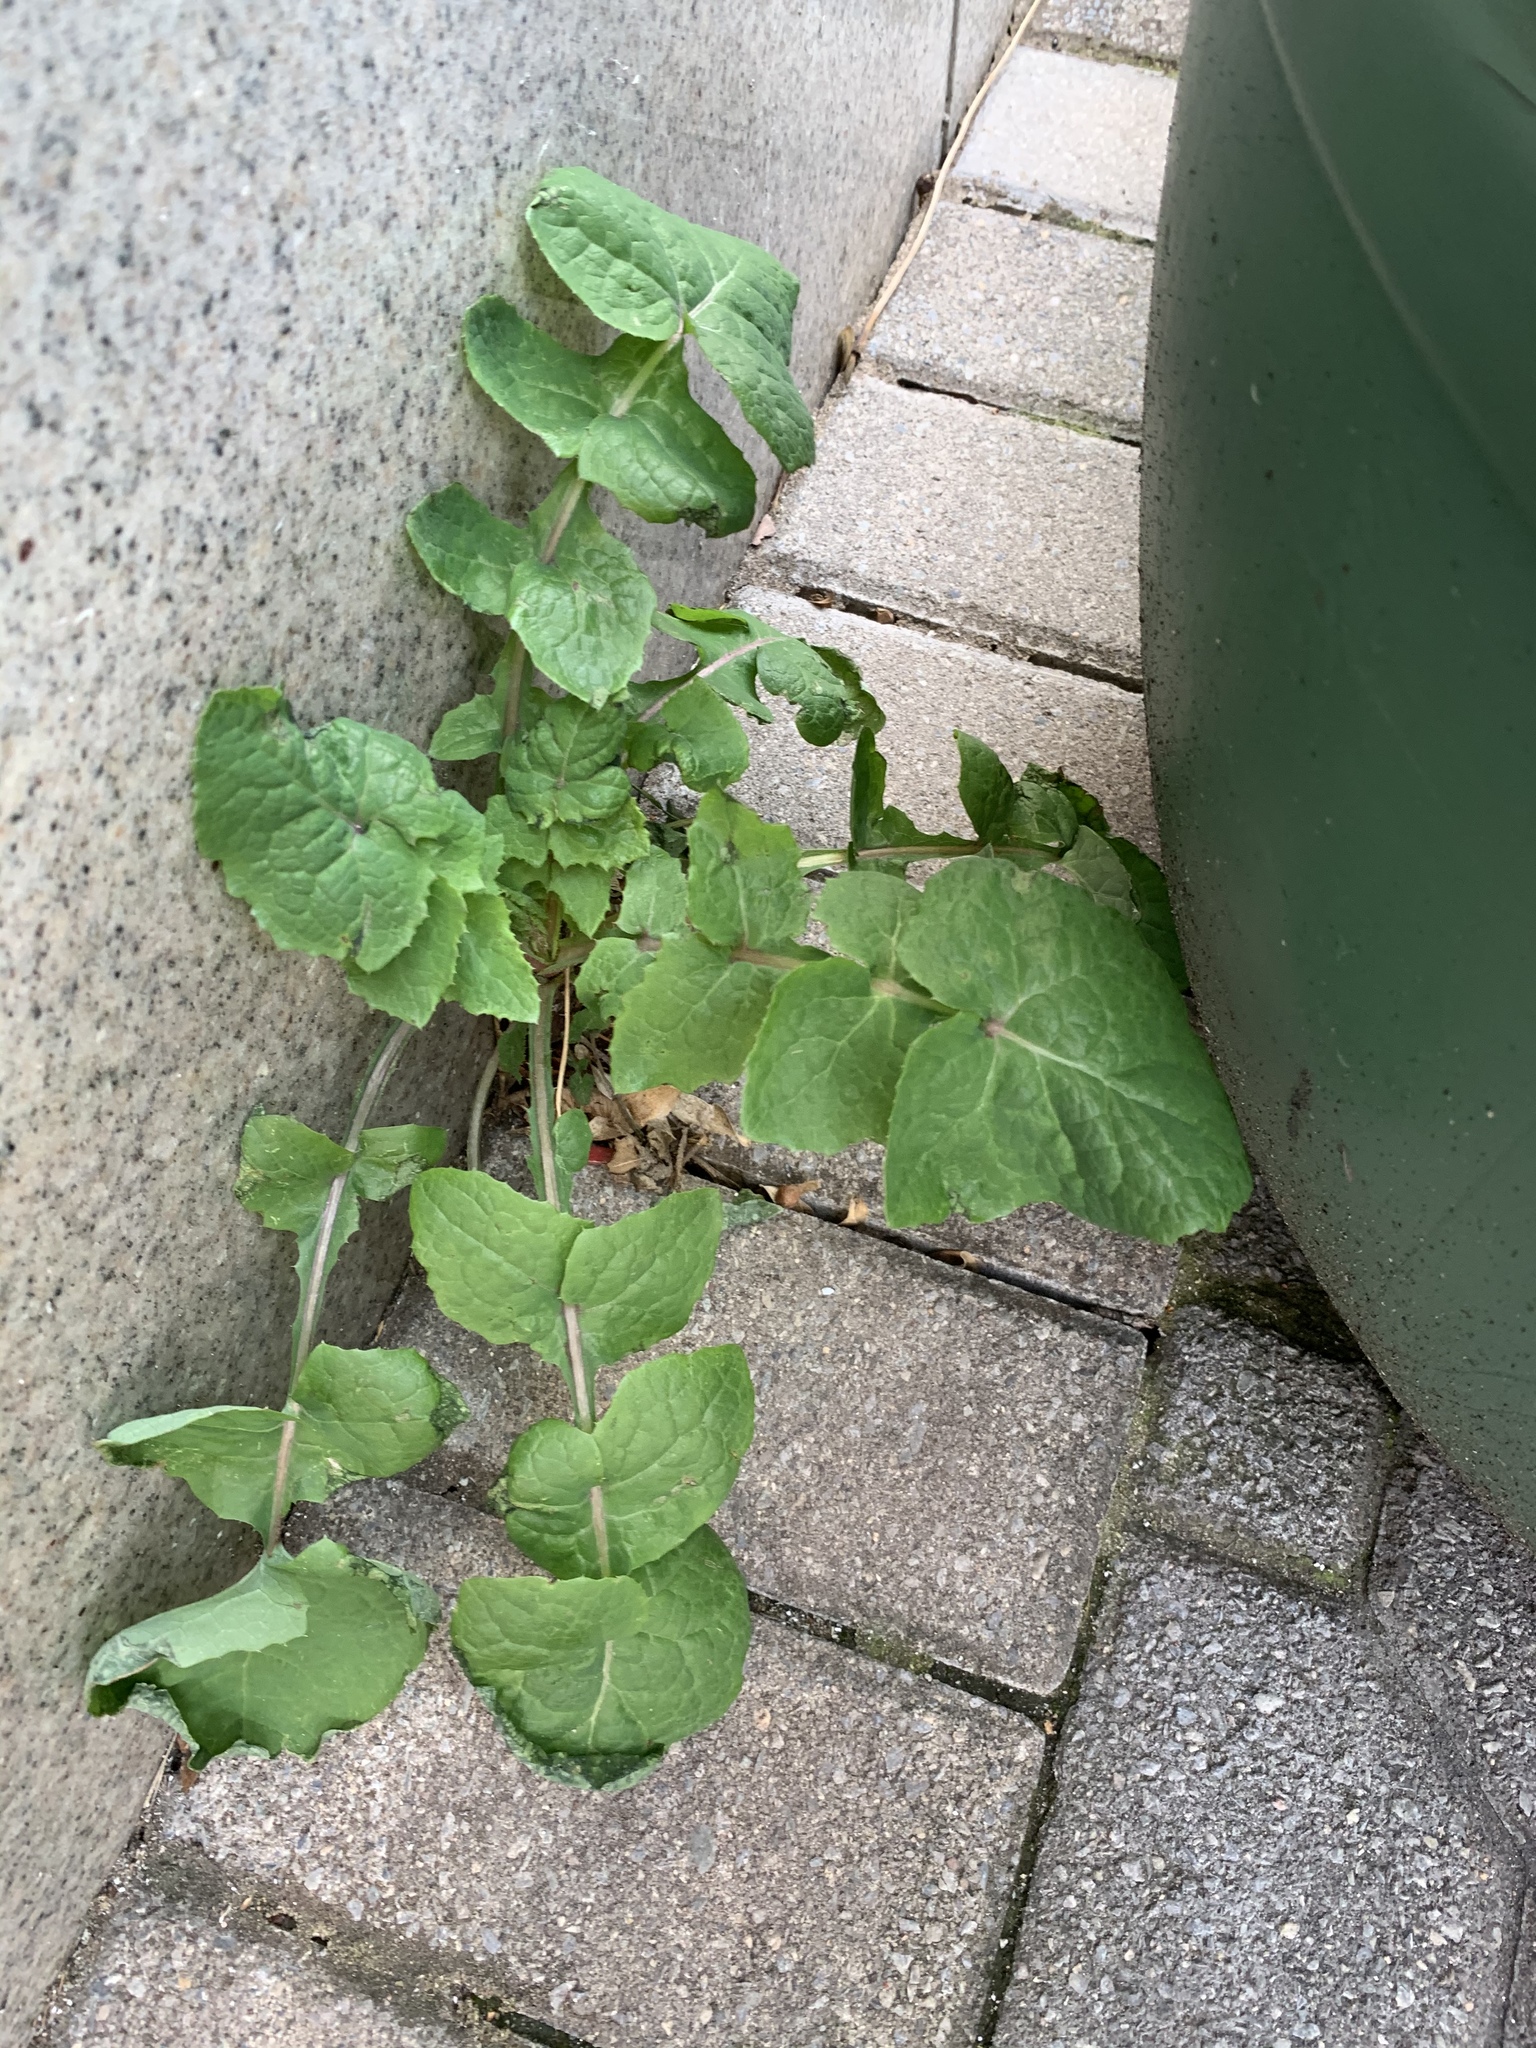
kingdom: Plantae
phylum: Tracheophyta
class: Magnoliopsida
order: Asterales
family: Asteraceae
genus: Sonchus
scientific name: Sonchus oleraceus
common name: Common sowthistle
